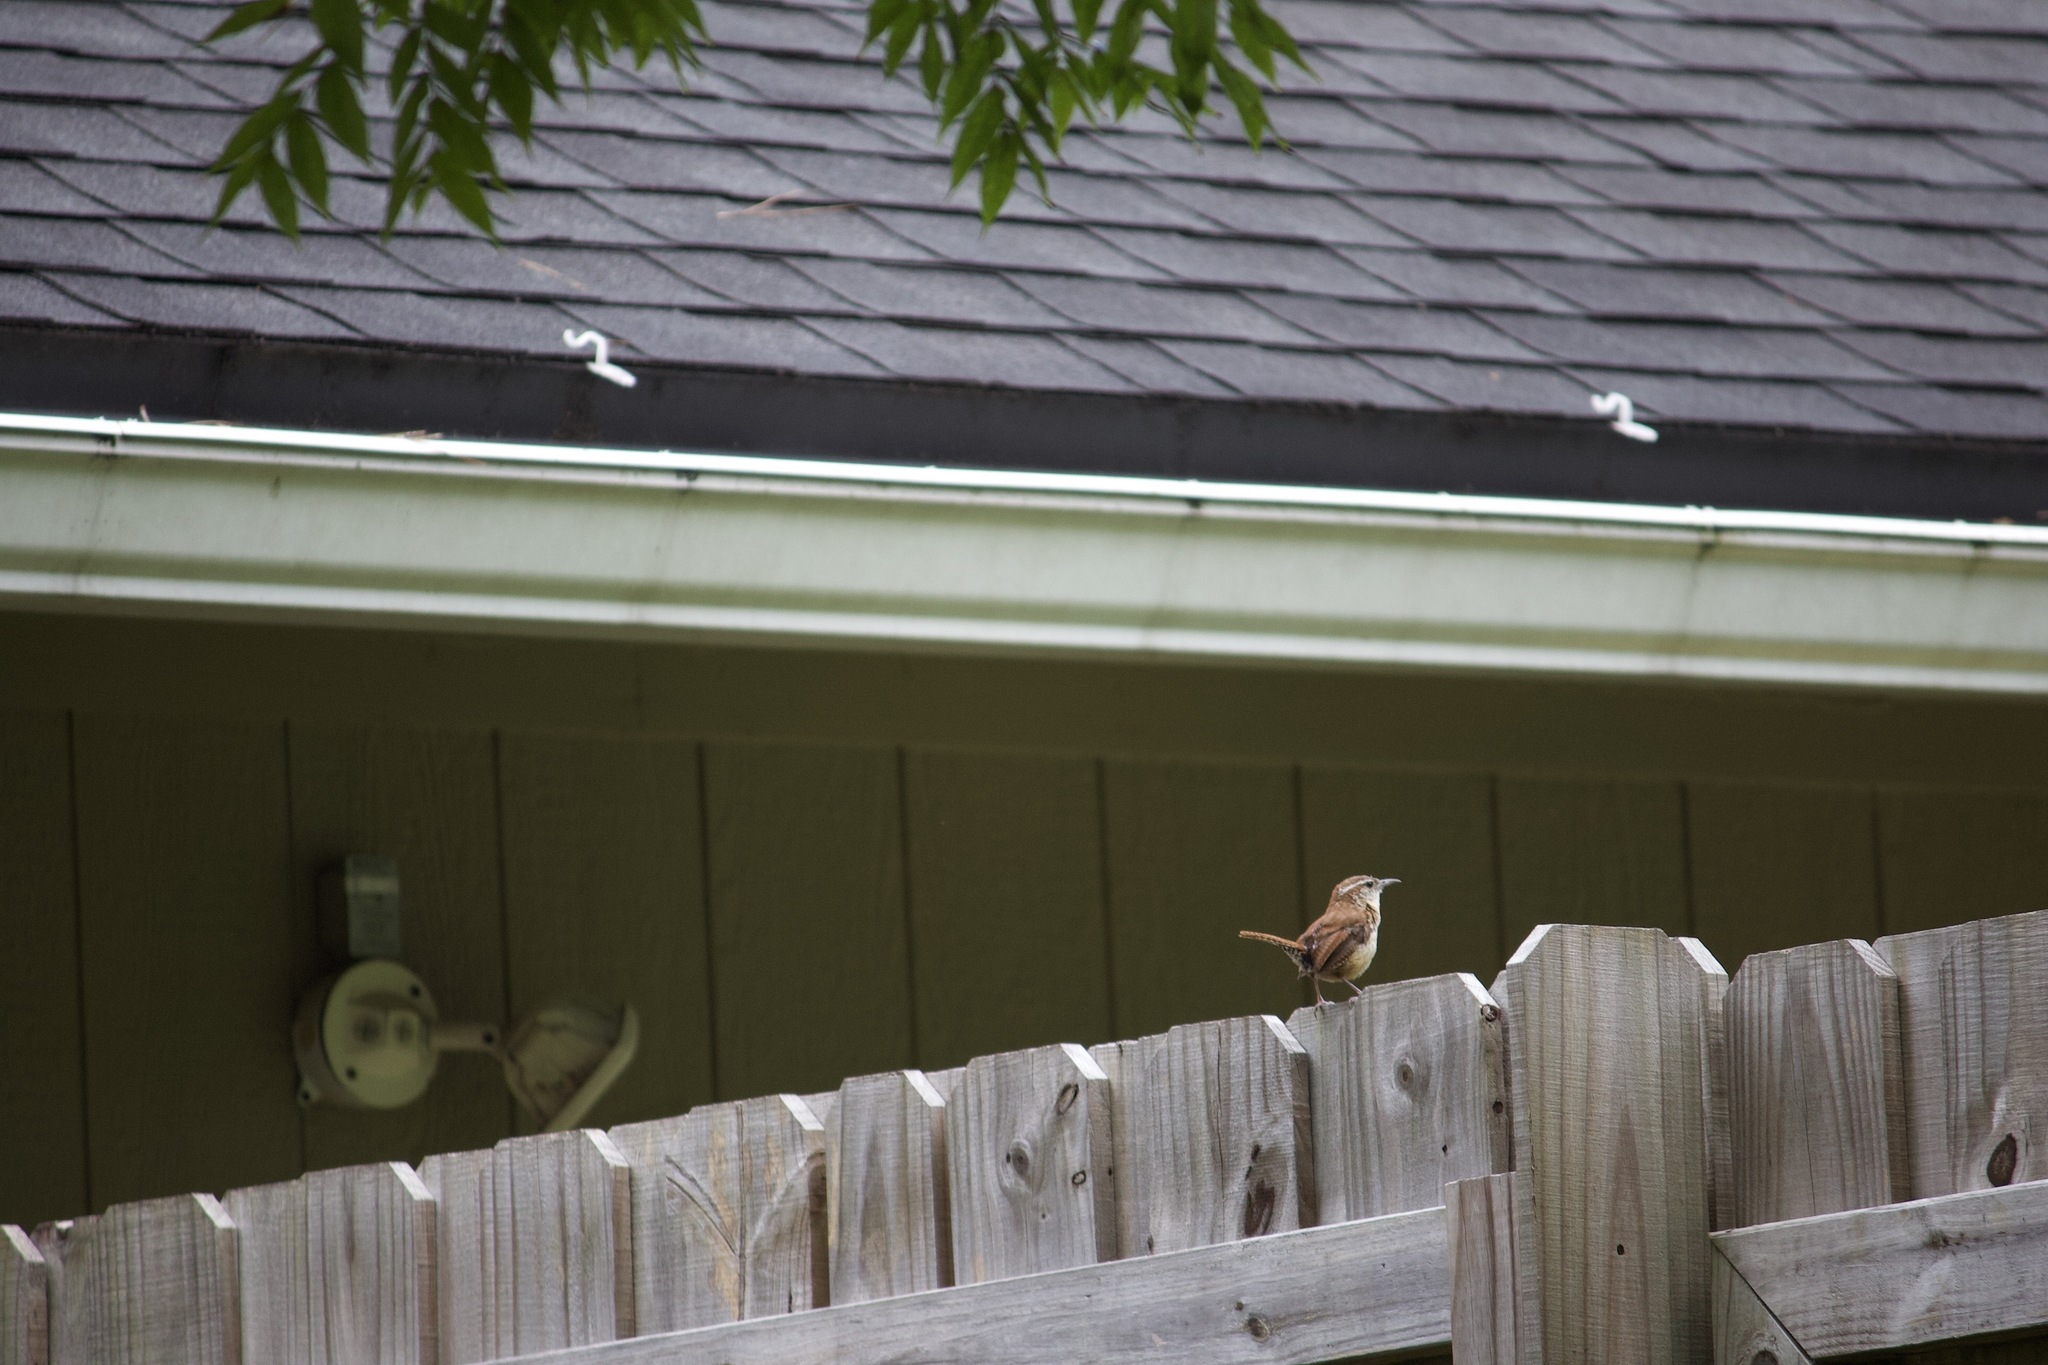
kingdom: Animalia
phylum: Chordata
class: Aves
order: Passeriformes
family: Troglodytidae
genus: Thryothorus
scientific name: Thryothorus ludovicianus
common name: Carolina wren
